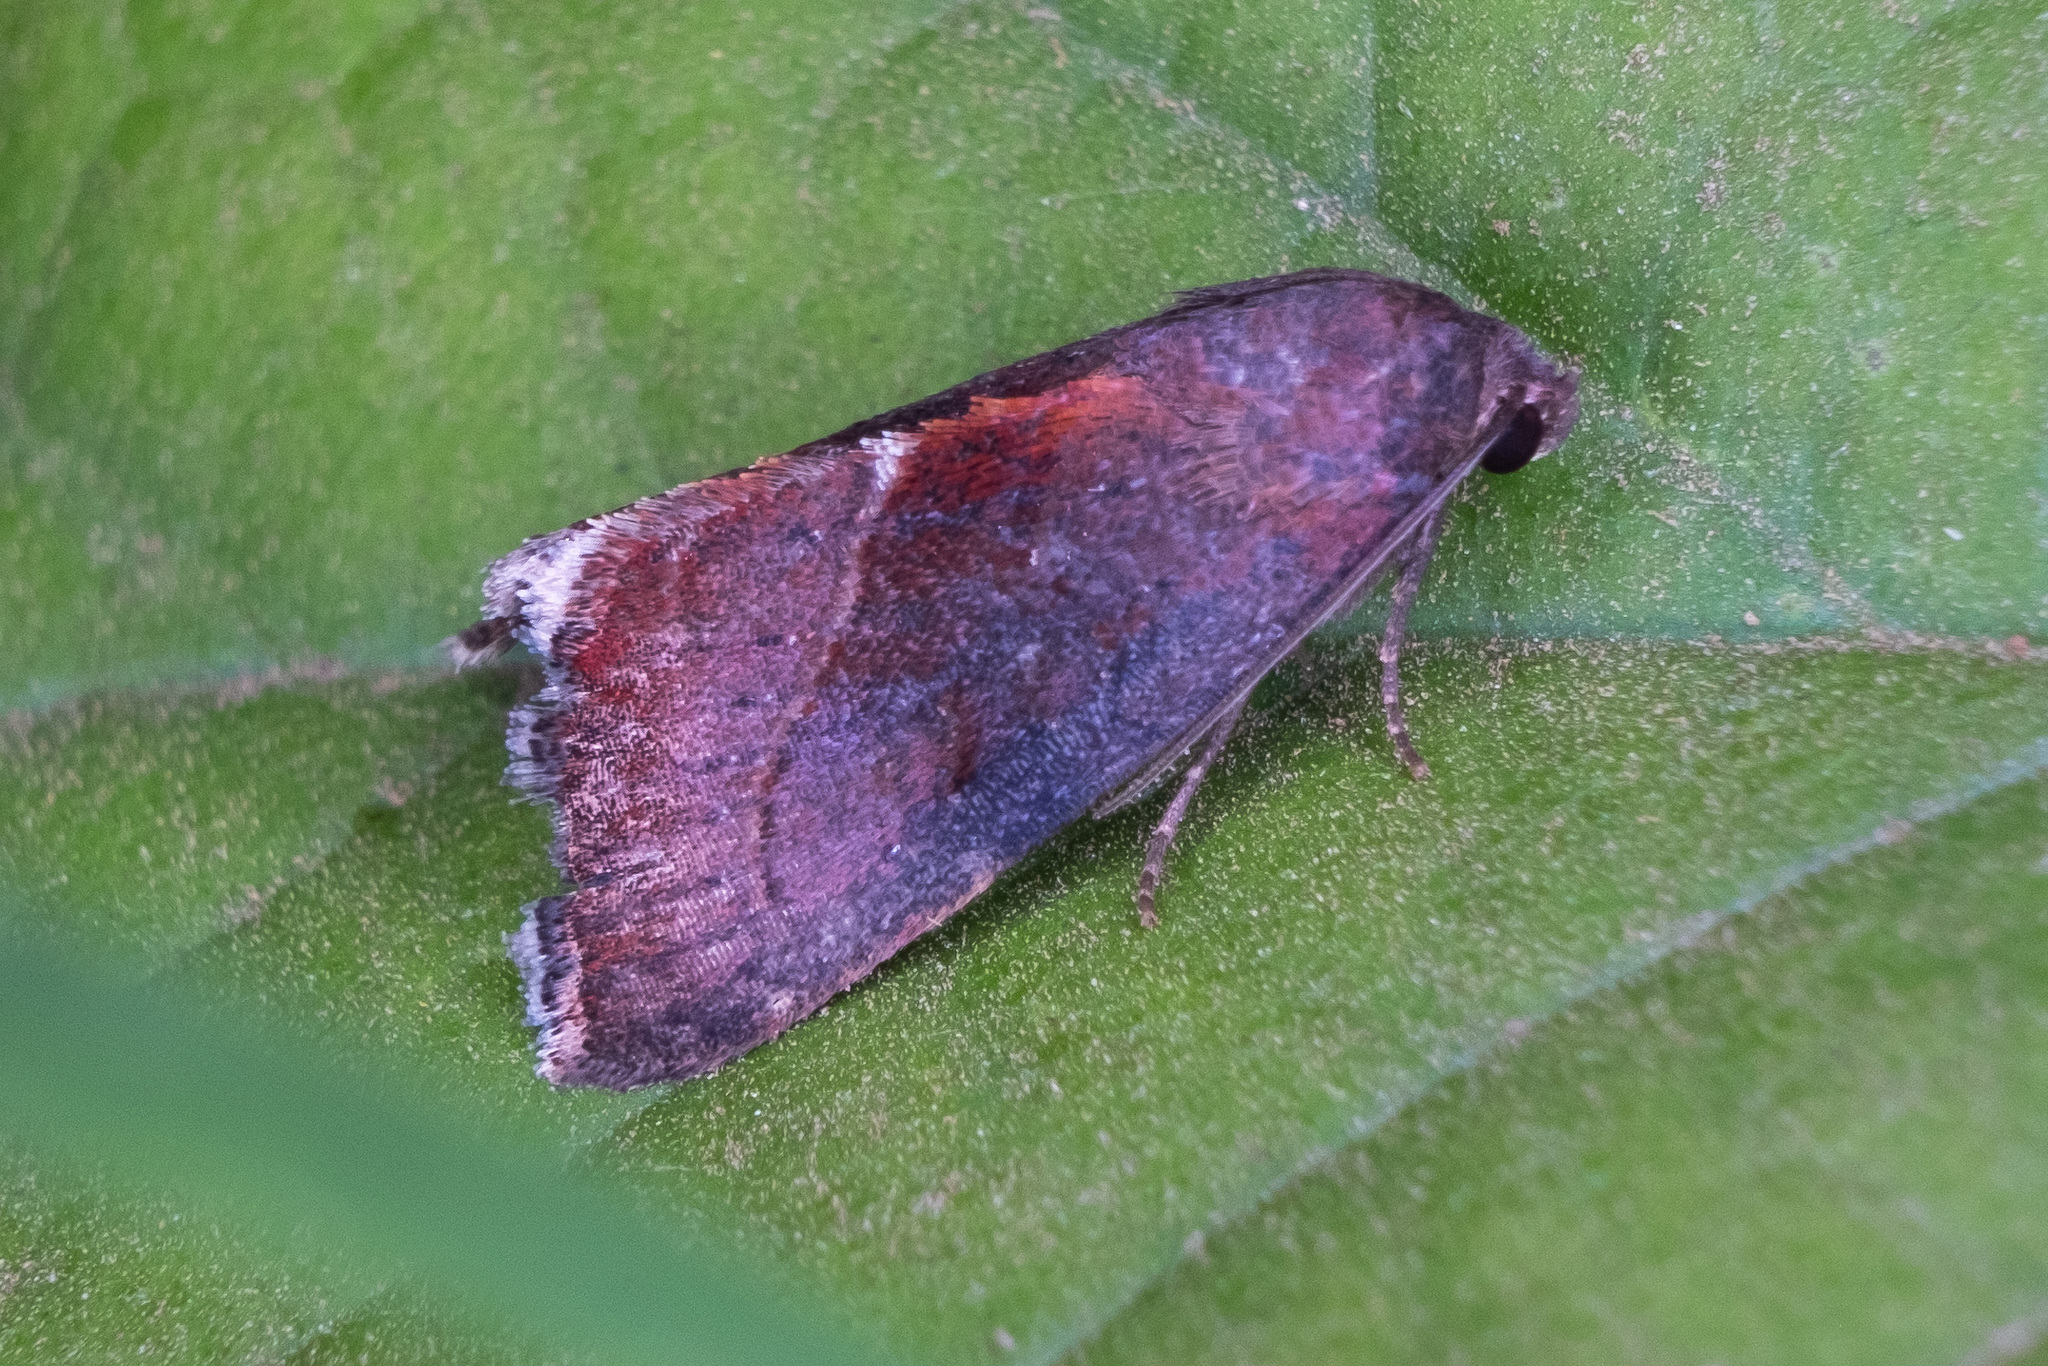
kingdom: Animalia
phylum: Arthropoda
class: Insecta
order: Lepidoptera
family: Noctuidae
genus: Galgula
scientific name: Galgula partita
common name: Wedgeling
